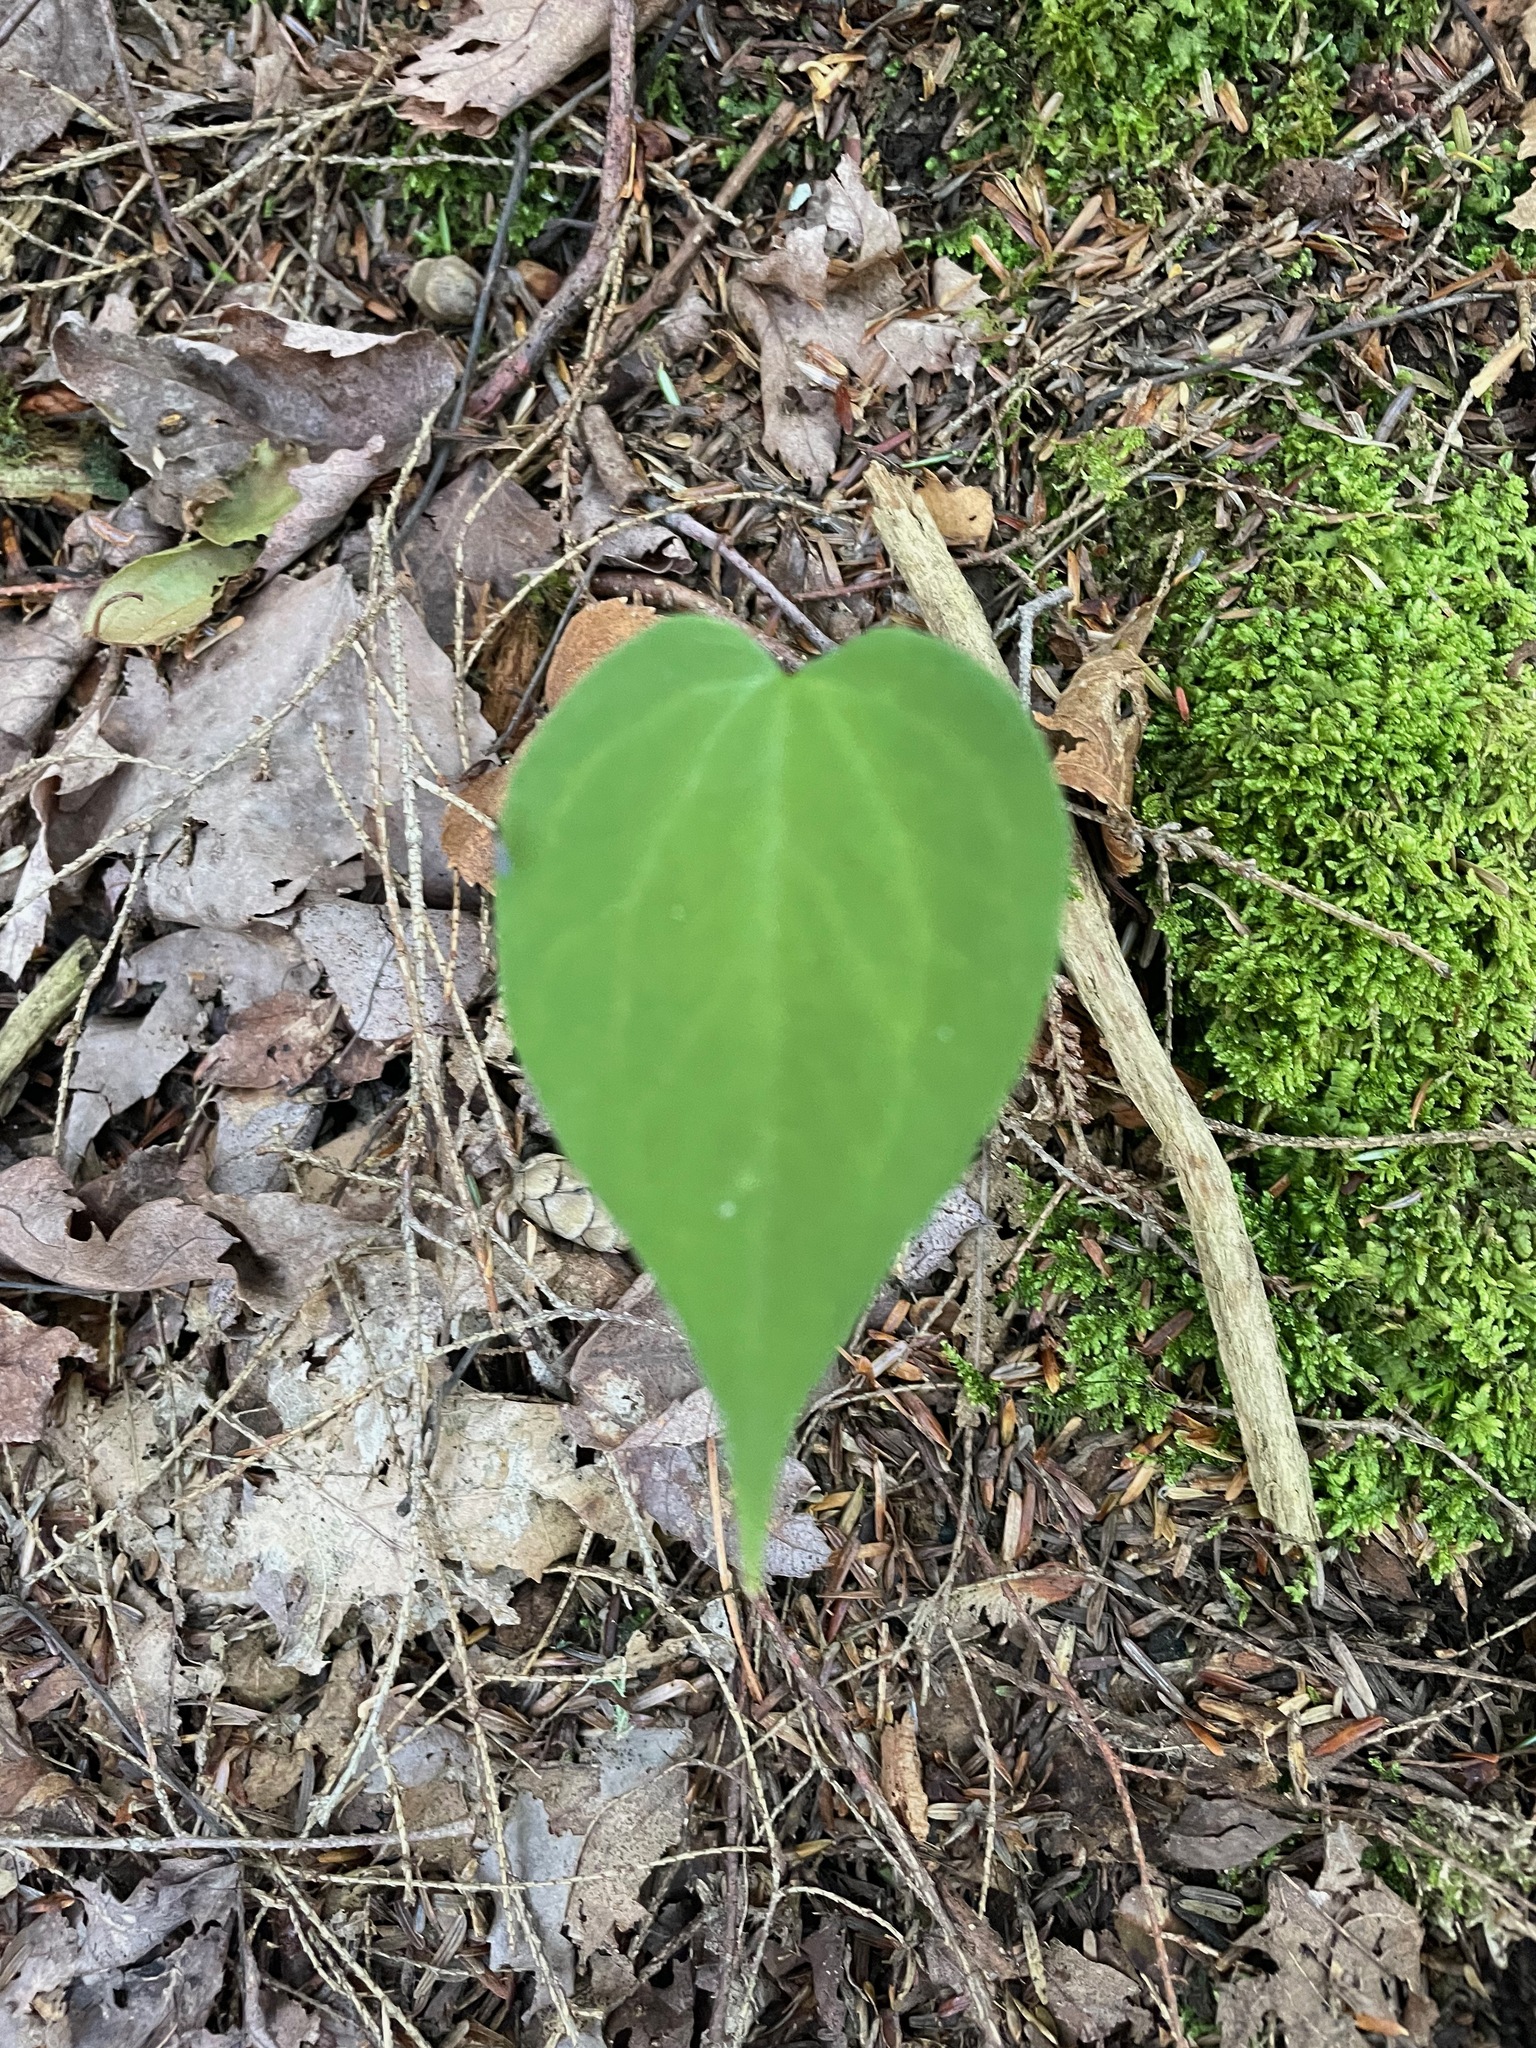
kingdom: Plantae
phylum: Tracheophyta
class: Liliopsida
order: Liliales
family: Melanthiaceae
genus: Trillium
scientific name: Trillium undulatum
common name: Paint trillium
